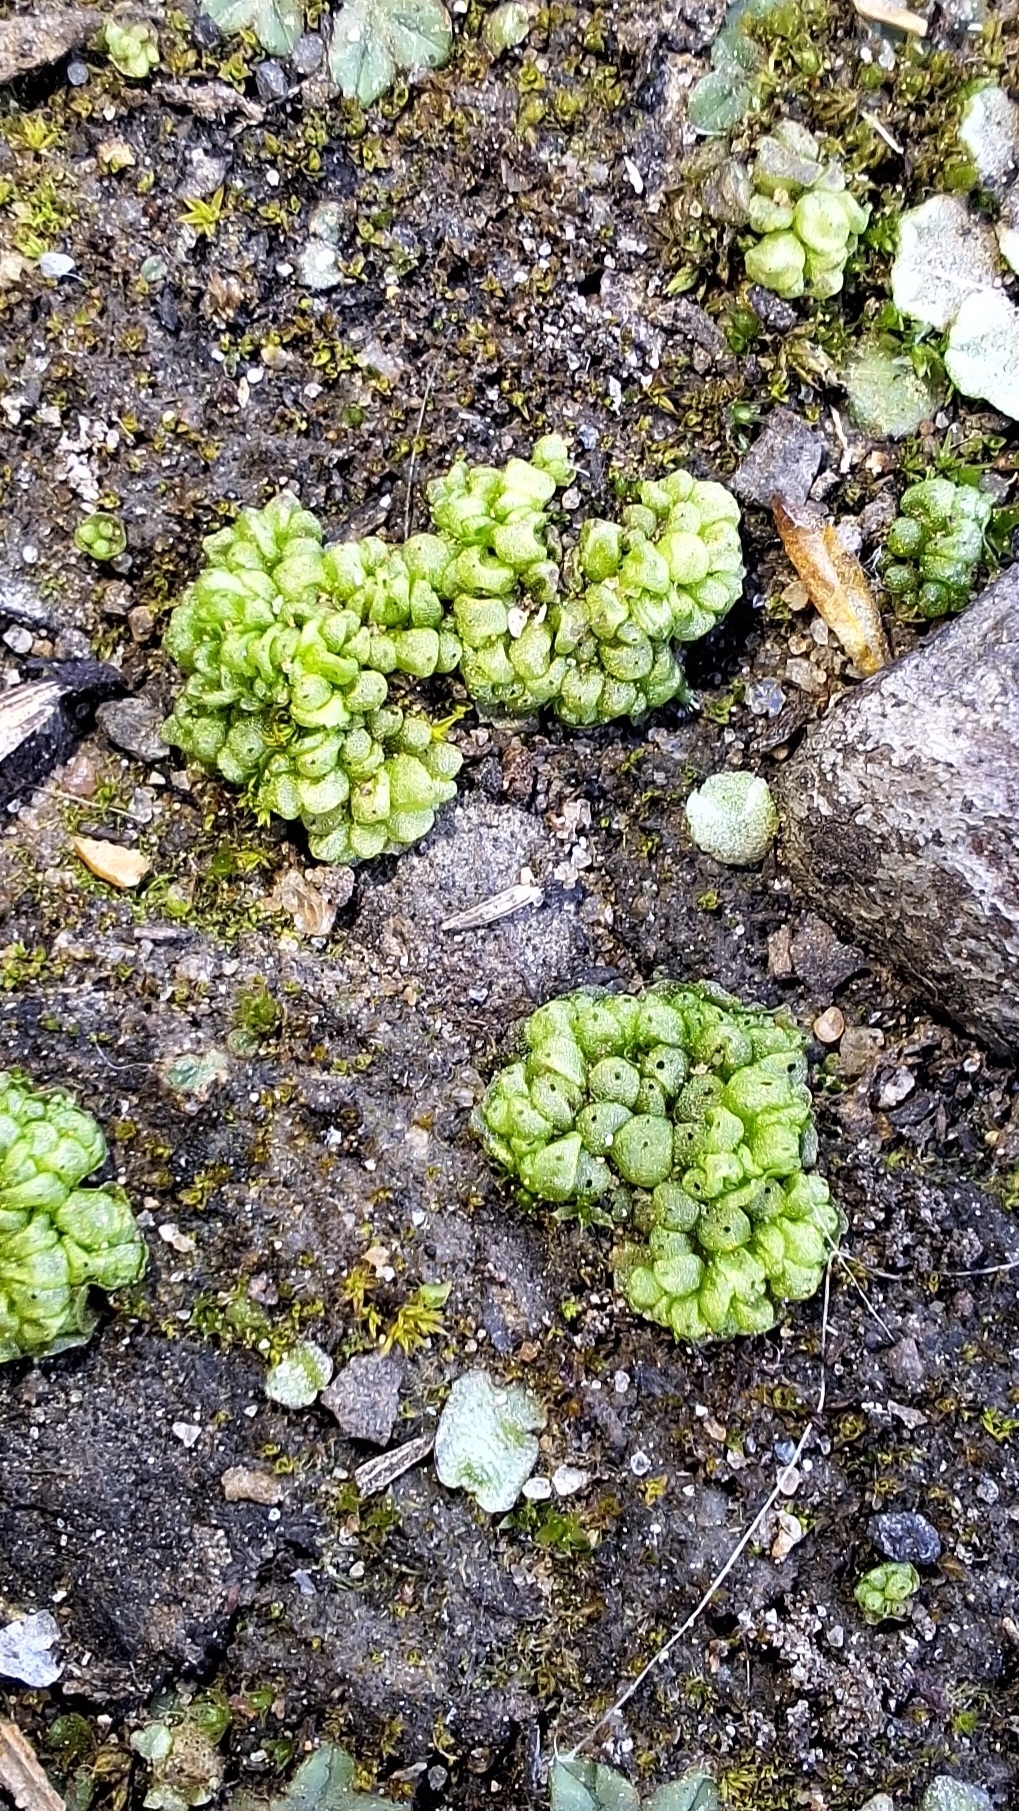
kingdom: Plantae
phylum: Marchantiophyta
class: Marchantiopsida
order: Sphaerocarpales
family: Sphaerocarpaceae
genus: Sphaerocarpos
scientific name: Sphaerocarpos texanus
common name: Texas balloonwort
